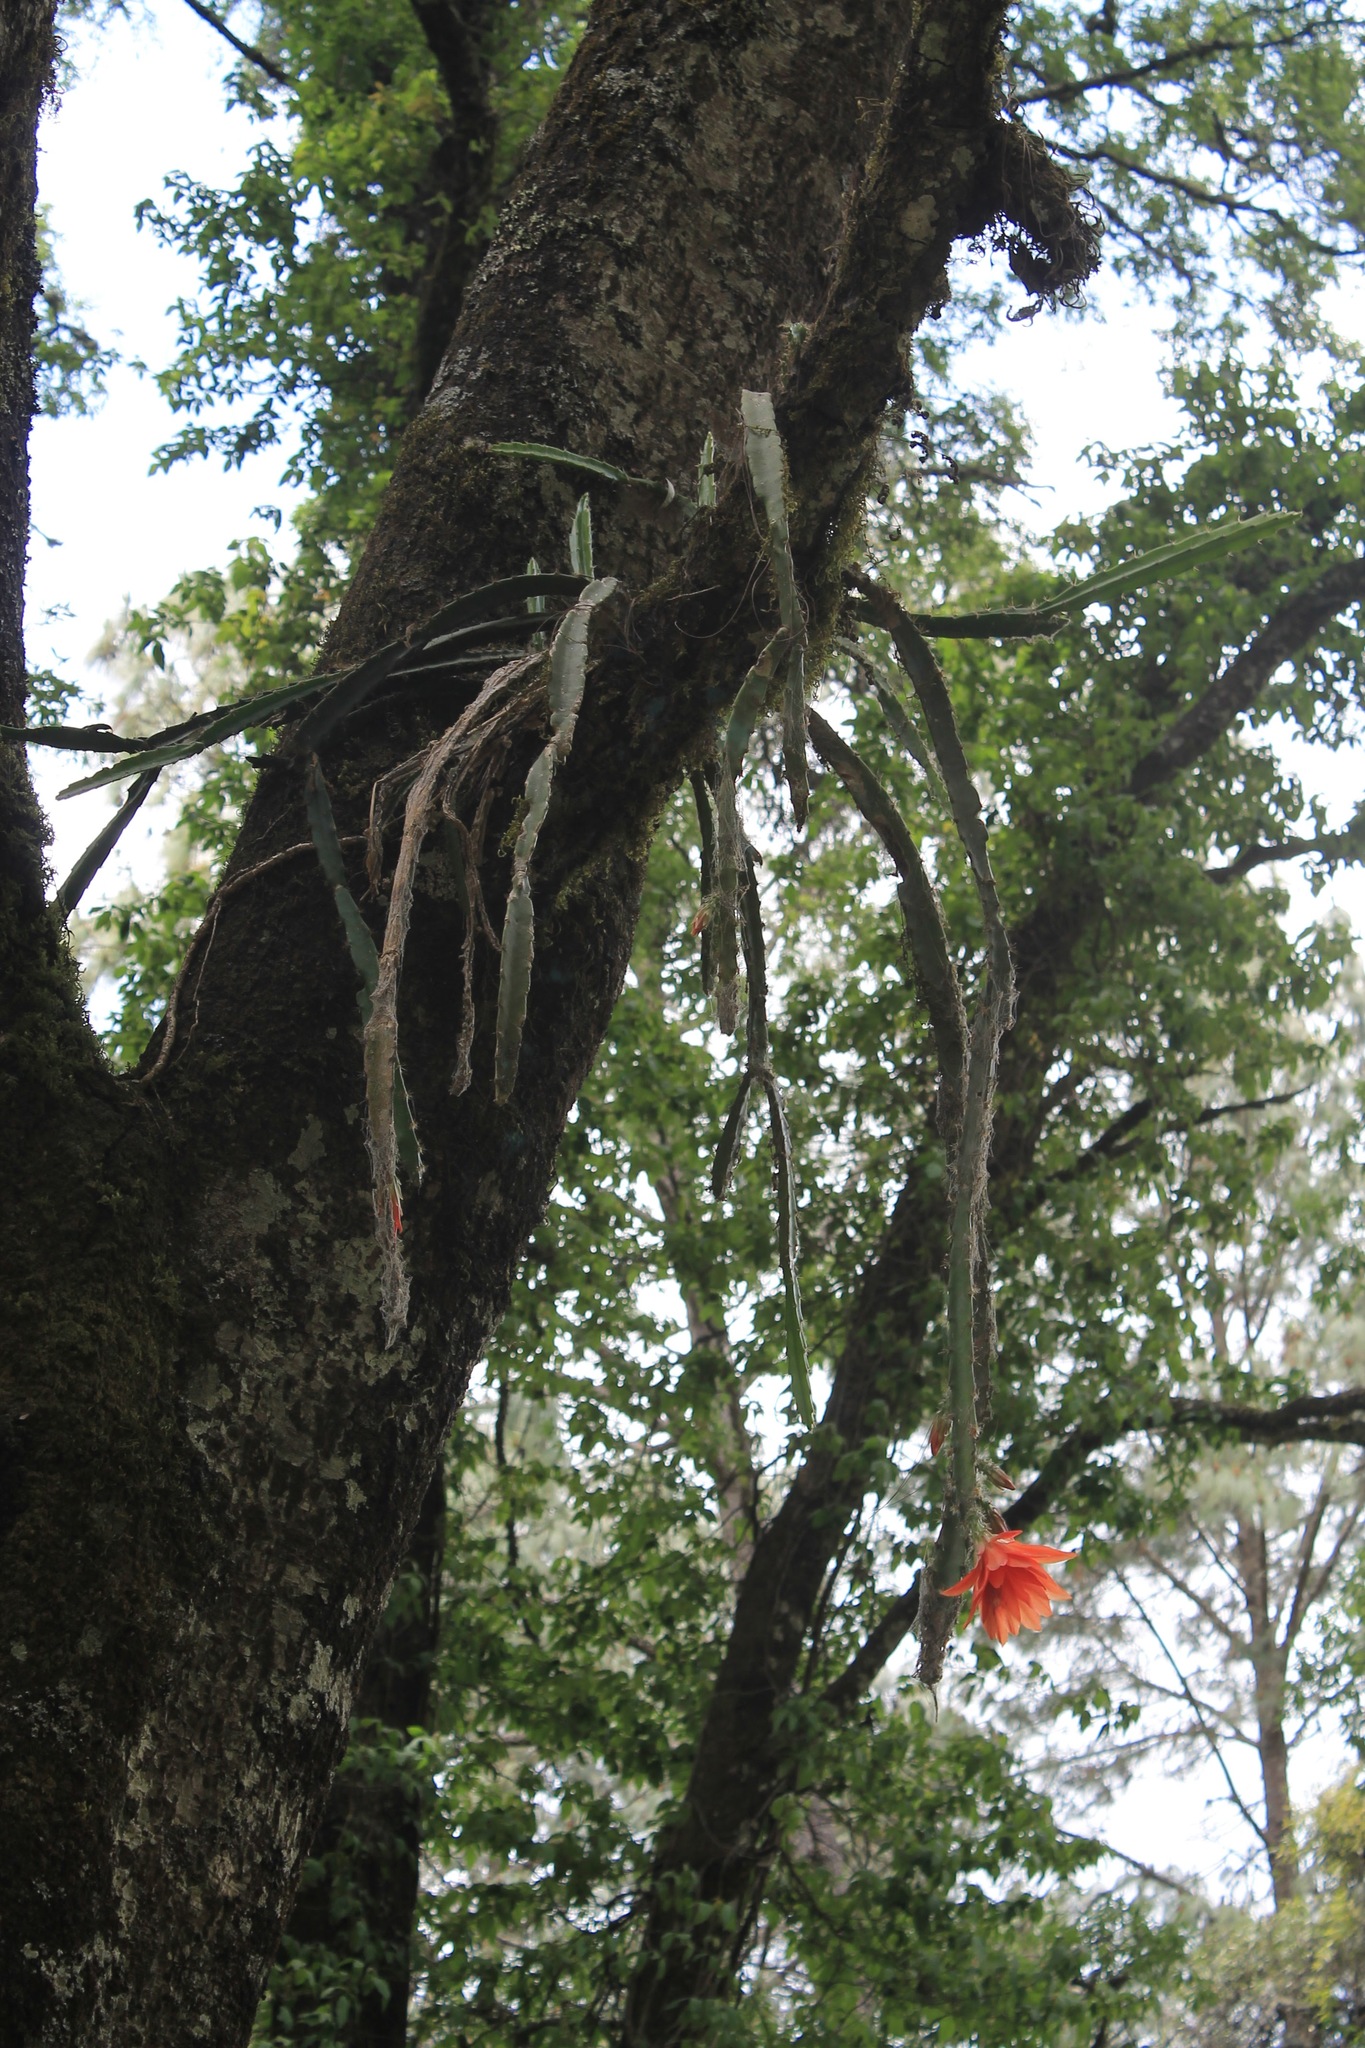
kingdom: Plantae
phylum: Tracheophyta
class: Magnoliopsida
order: Caryophyllales
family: Cactaceae
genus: Disocactus
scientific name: Disocactus speciosus
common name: Sun cereus
